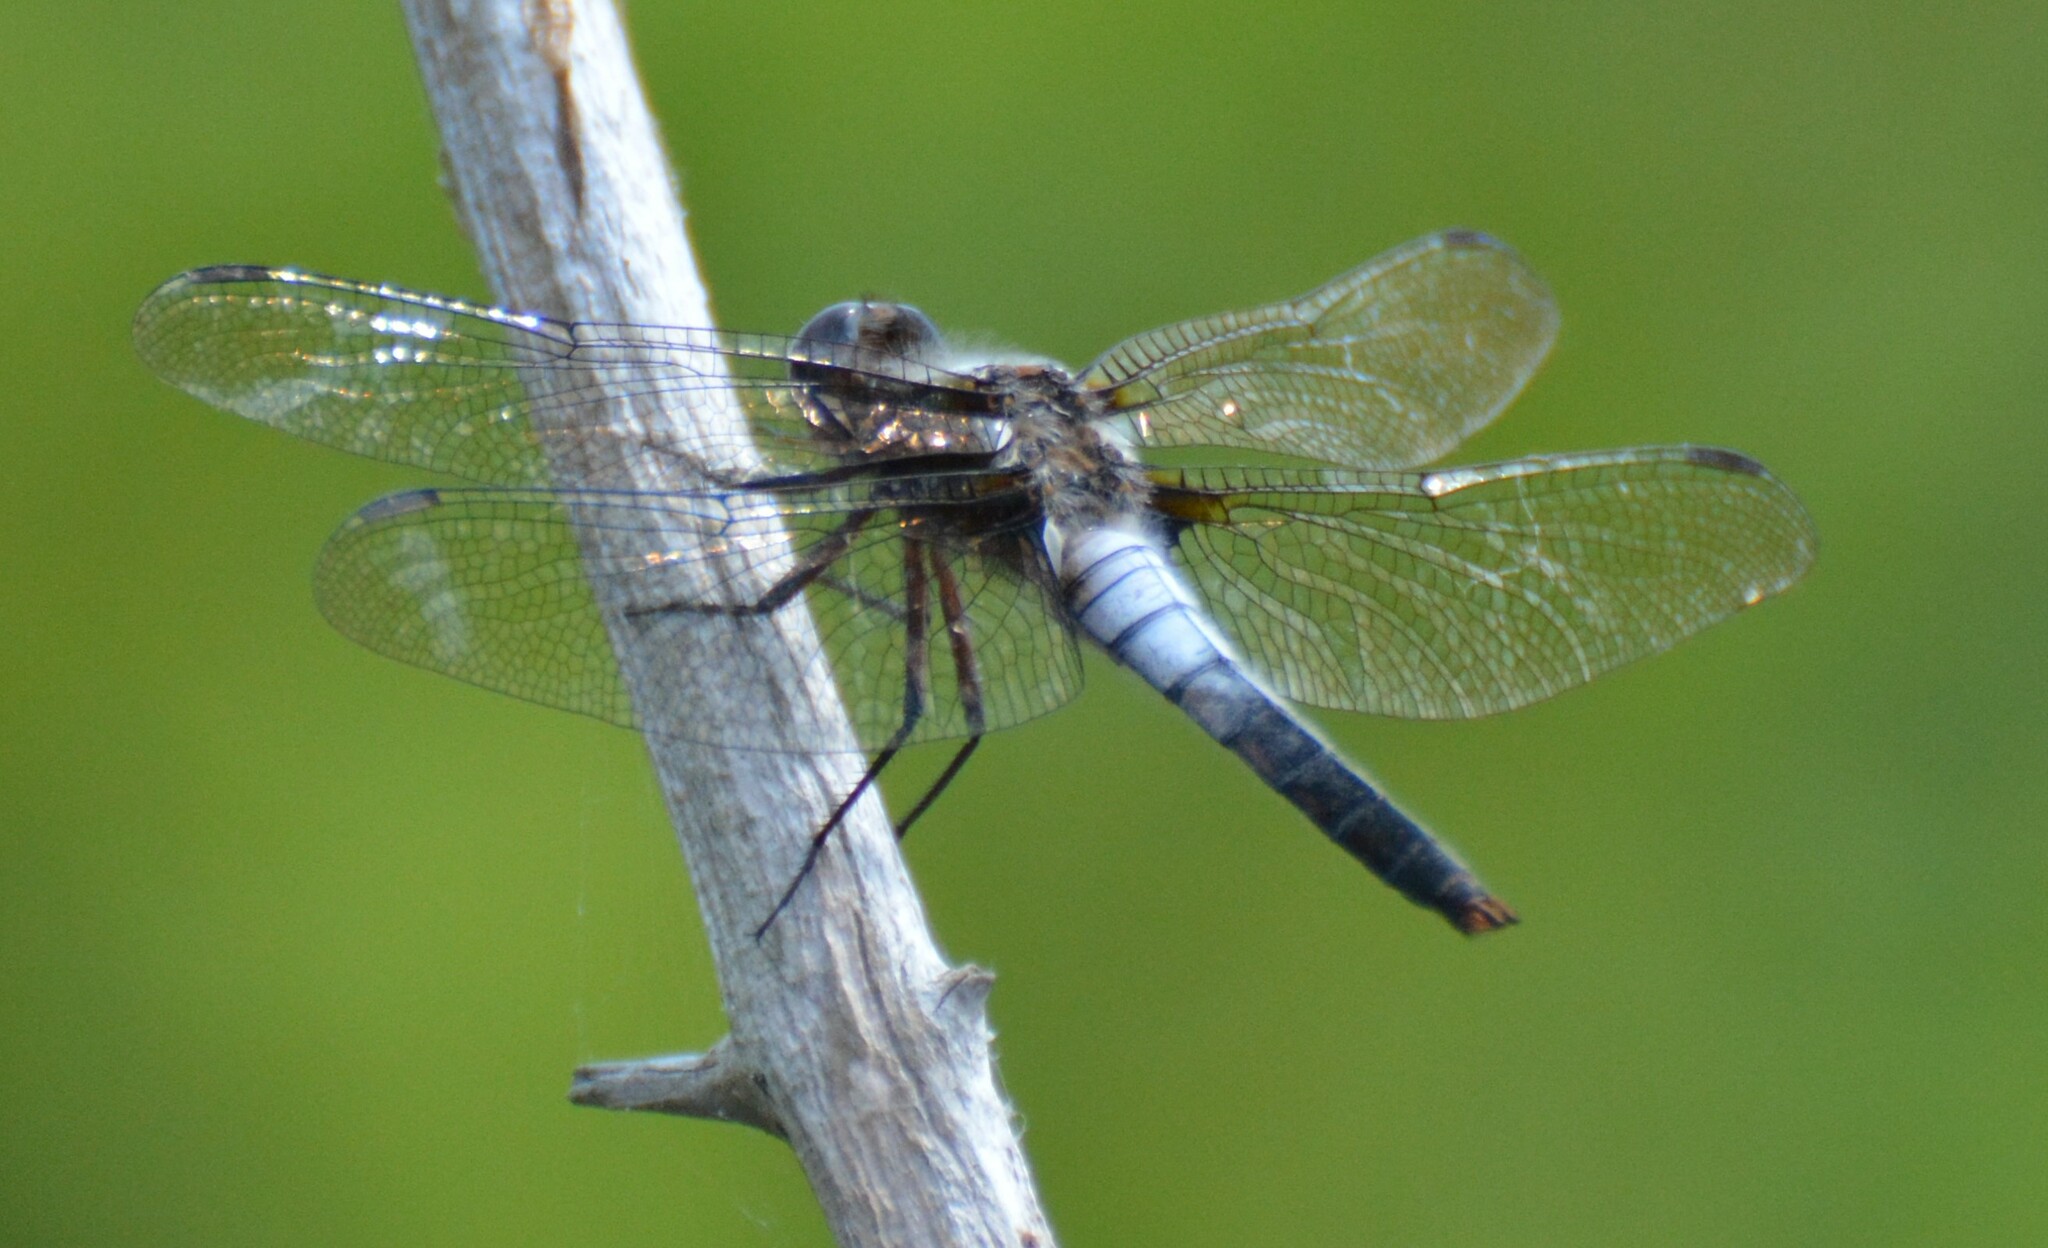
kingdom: Animalia
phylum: Arthropoda
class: Insecta
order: Odonata
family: Libellulidae
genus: Ladona
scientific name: Ladona julia
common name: Chalk-fronted corporal
